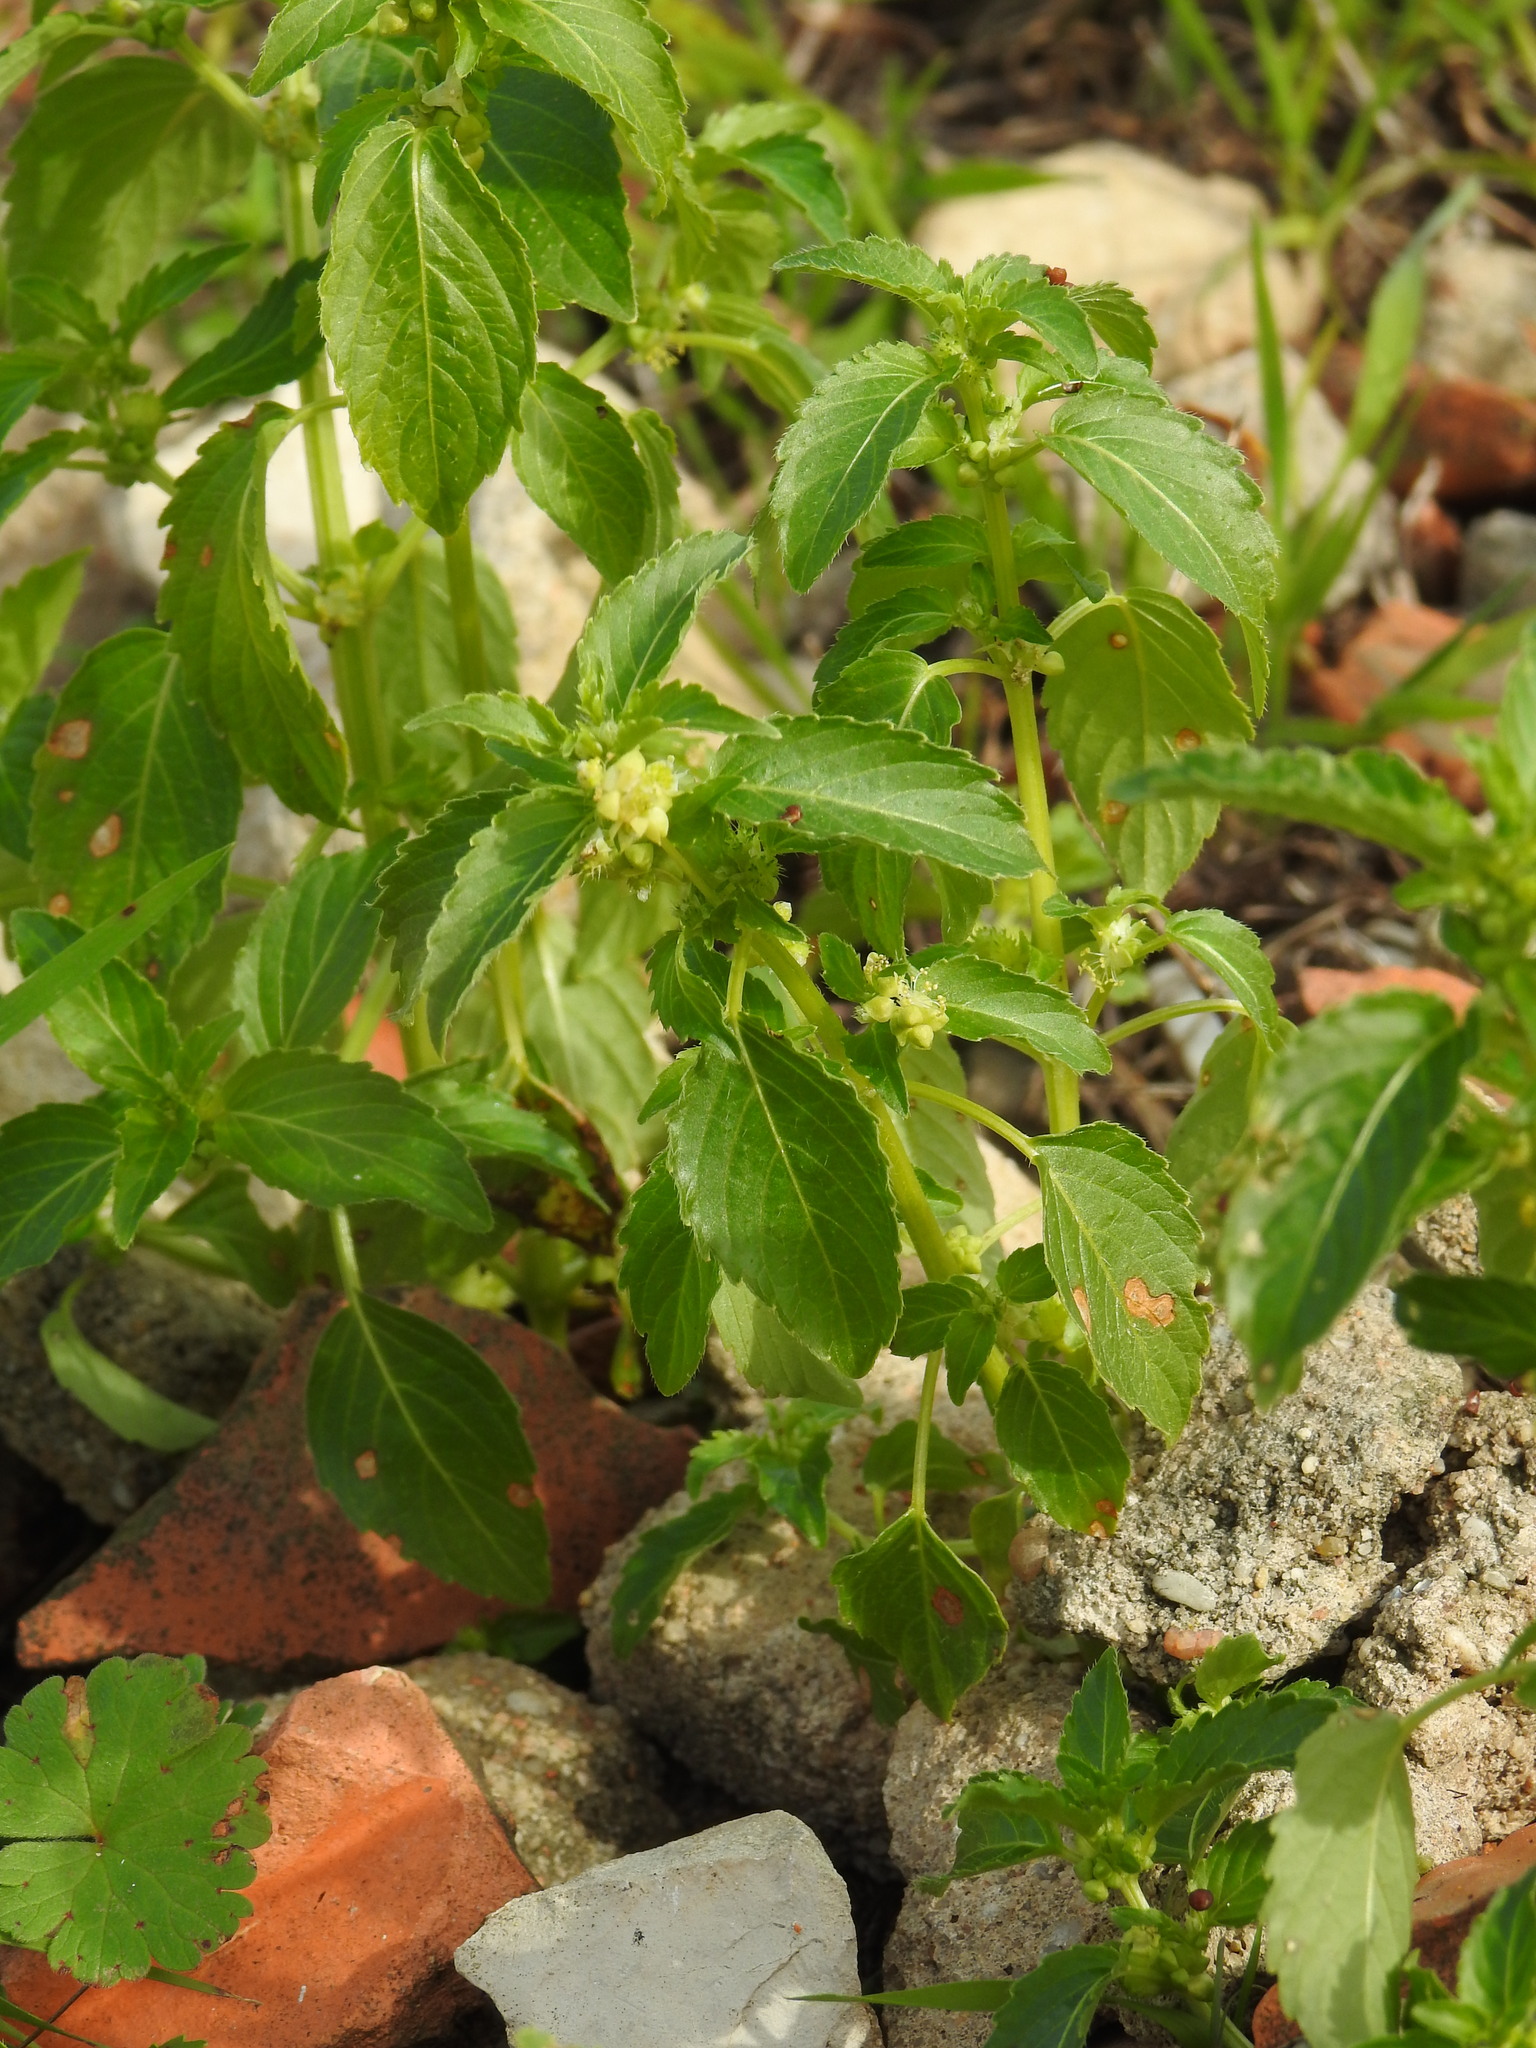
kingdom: Plantae
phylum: Tracheophyta
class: Magnoliopsida
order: Malpighiales
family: Euphorbiaceae
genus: Mercurialis
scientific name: Mercurialis annua
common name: Annual mercury
